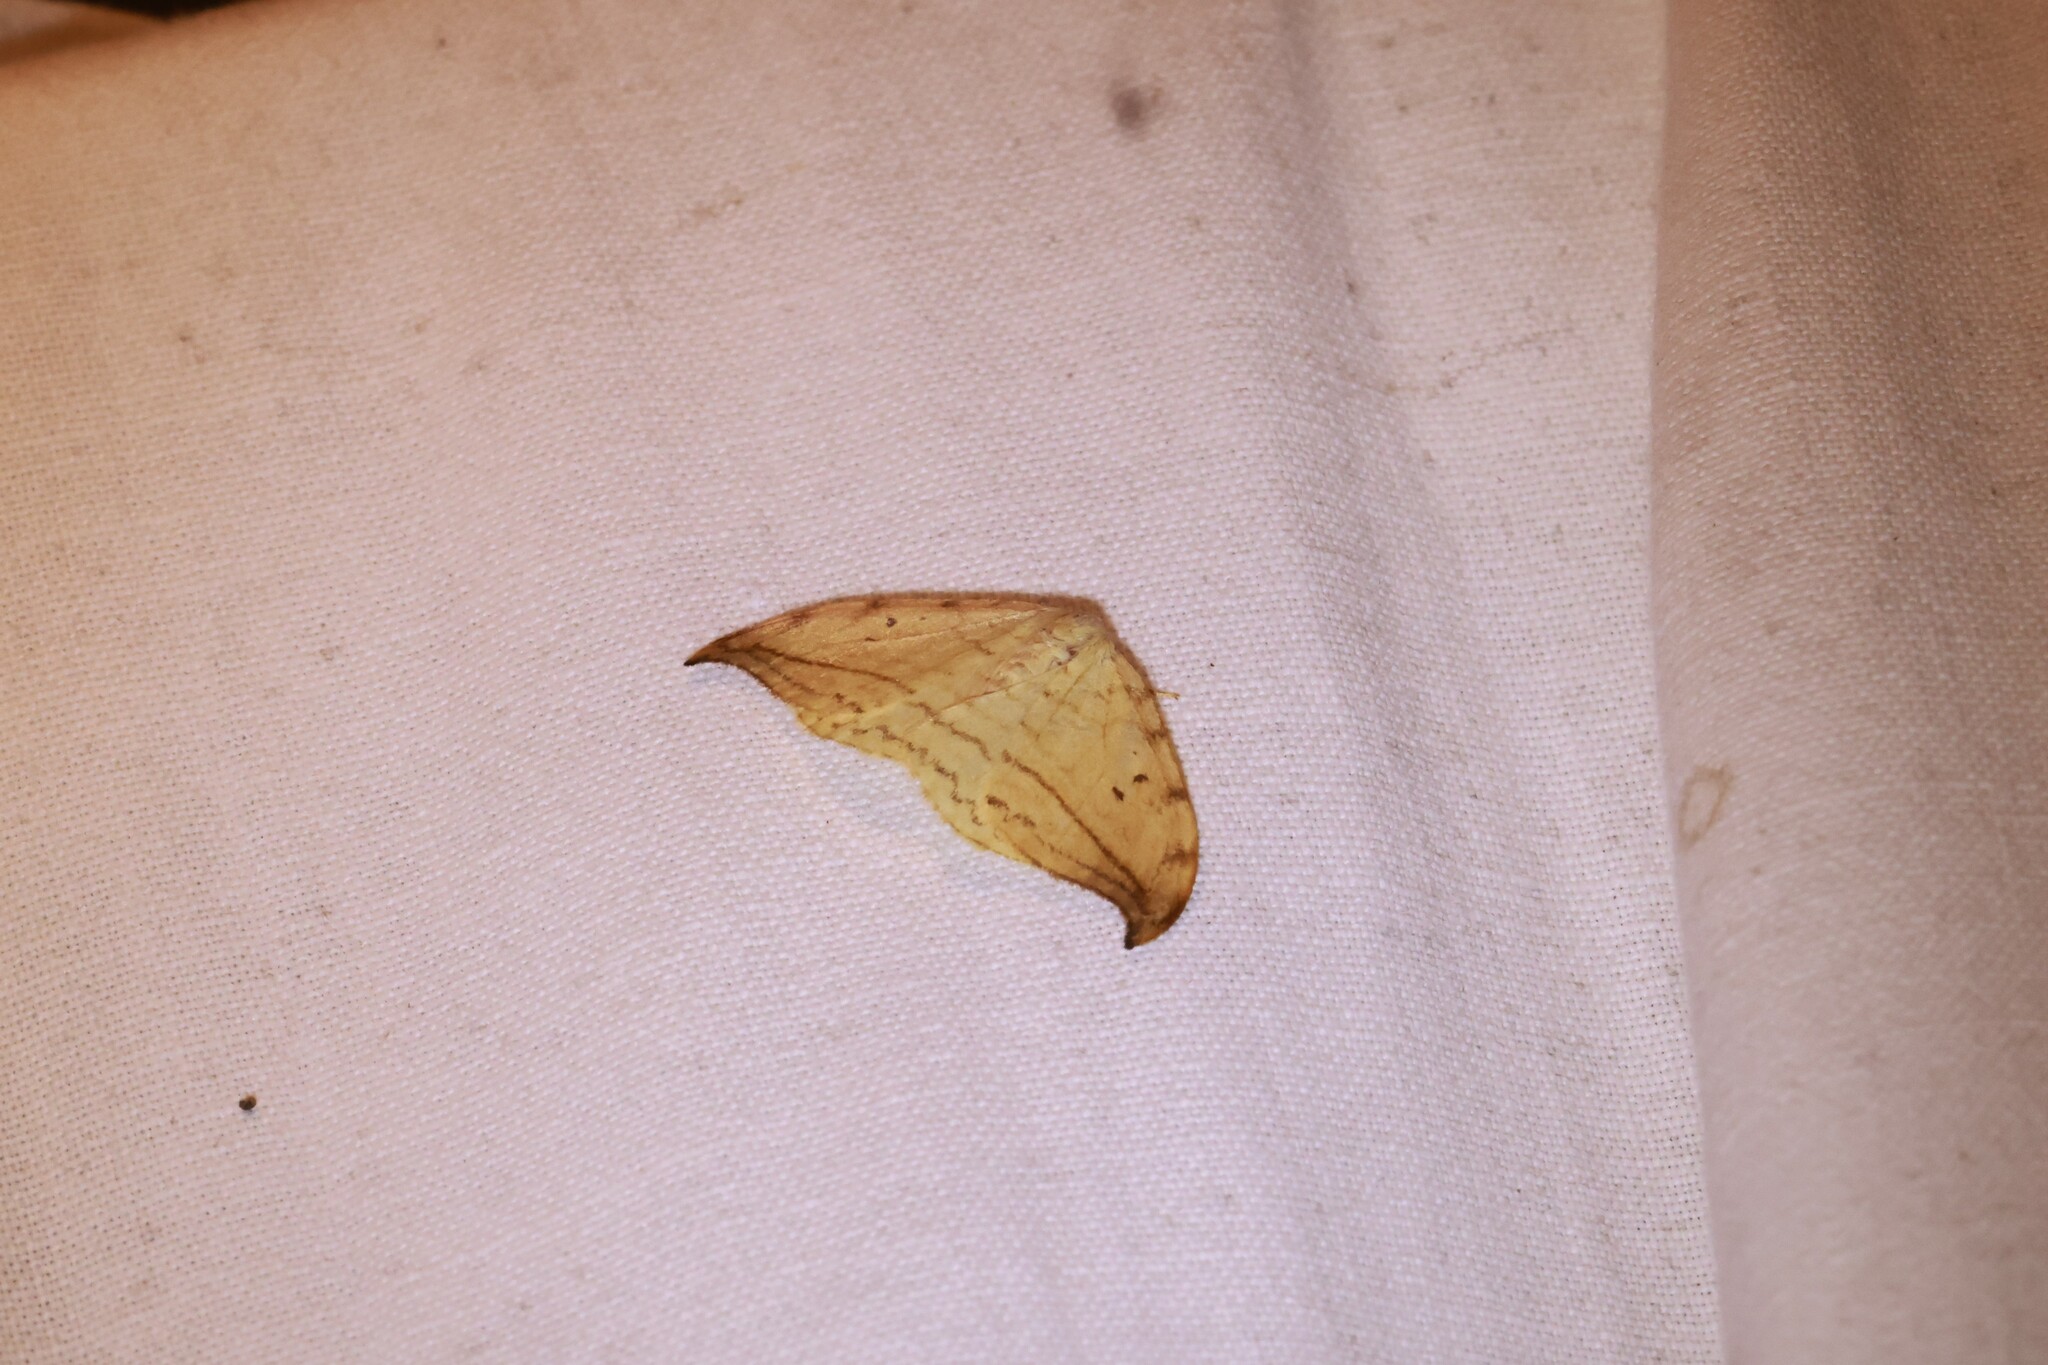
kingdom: Animalia
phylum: Arthropoda
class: Insecta
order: Lepidoptera
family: Drepanidae
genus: Drepana
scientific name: Drepana arcuata
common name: Arched hooktip moth
